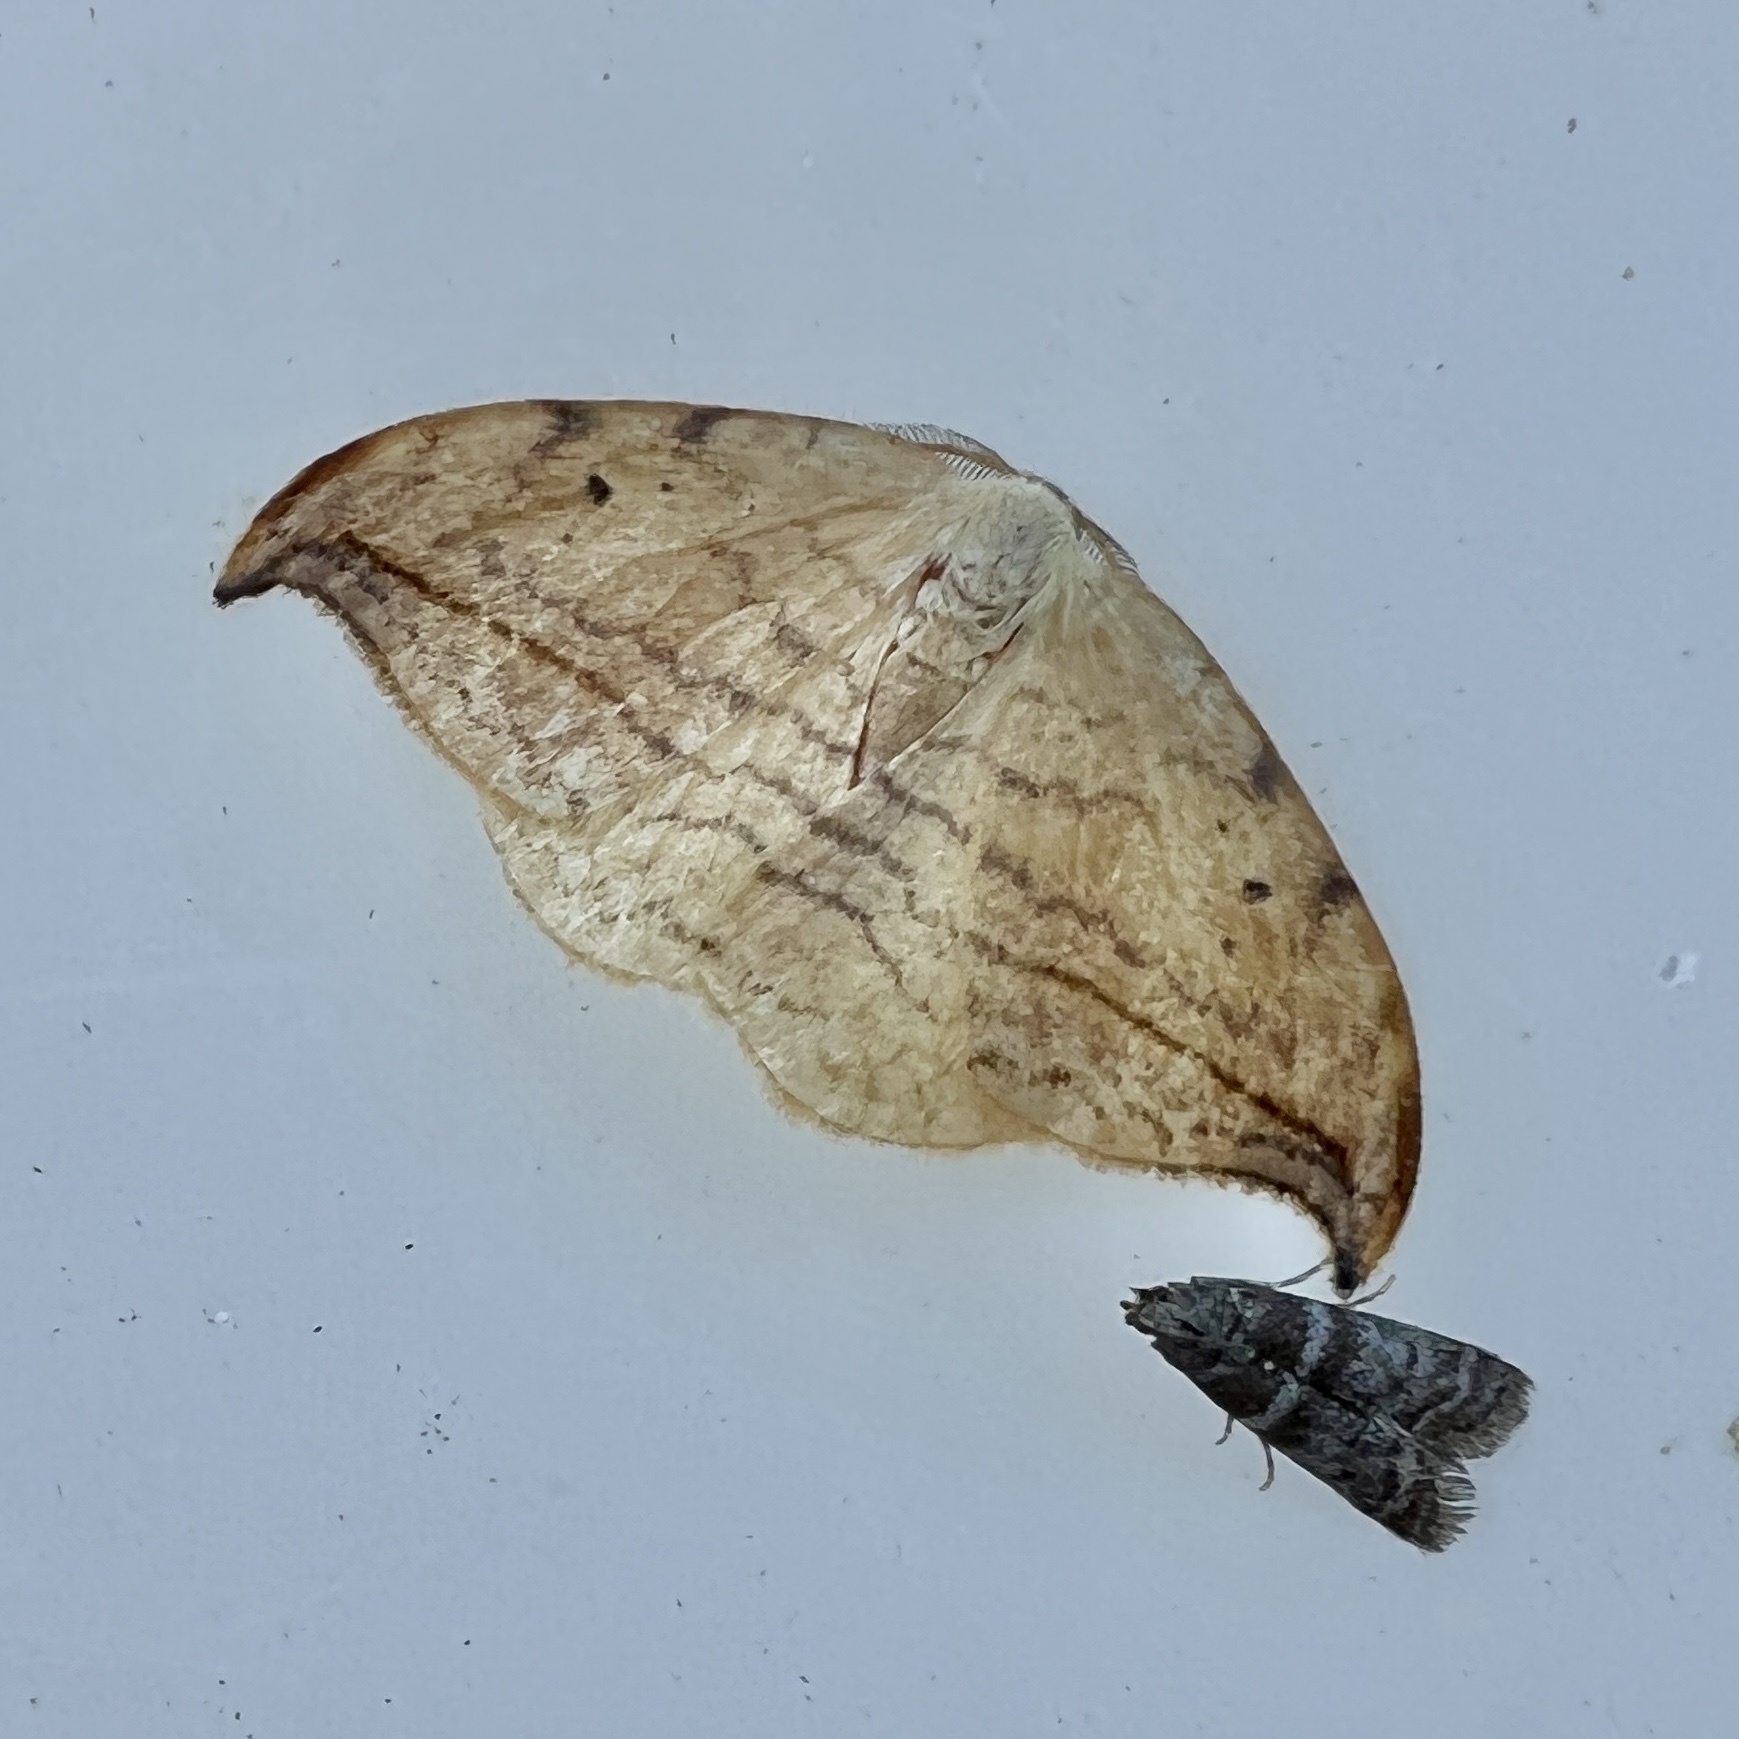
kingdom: Animalia
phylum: Arthropoda
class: Insecta
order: Lepidoptera
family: Drepanidae
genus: Drepana
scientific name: Drepana arcuata
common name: Arched hooktip moth
